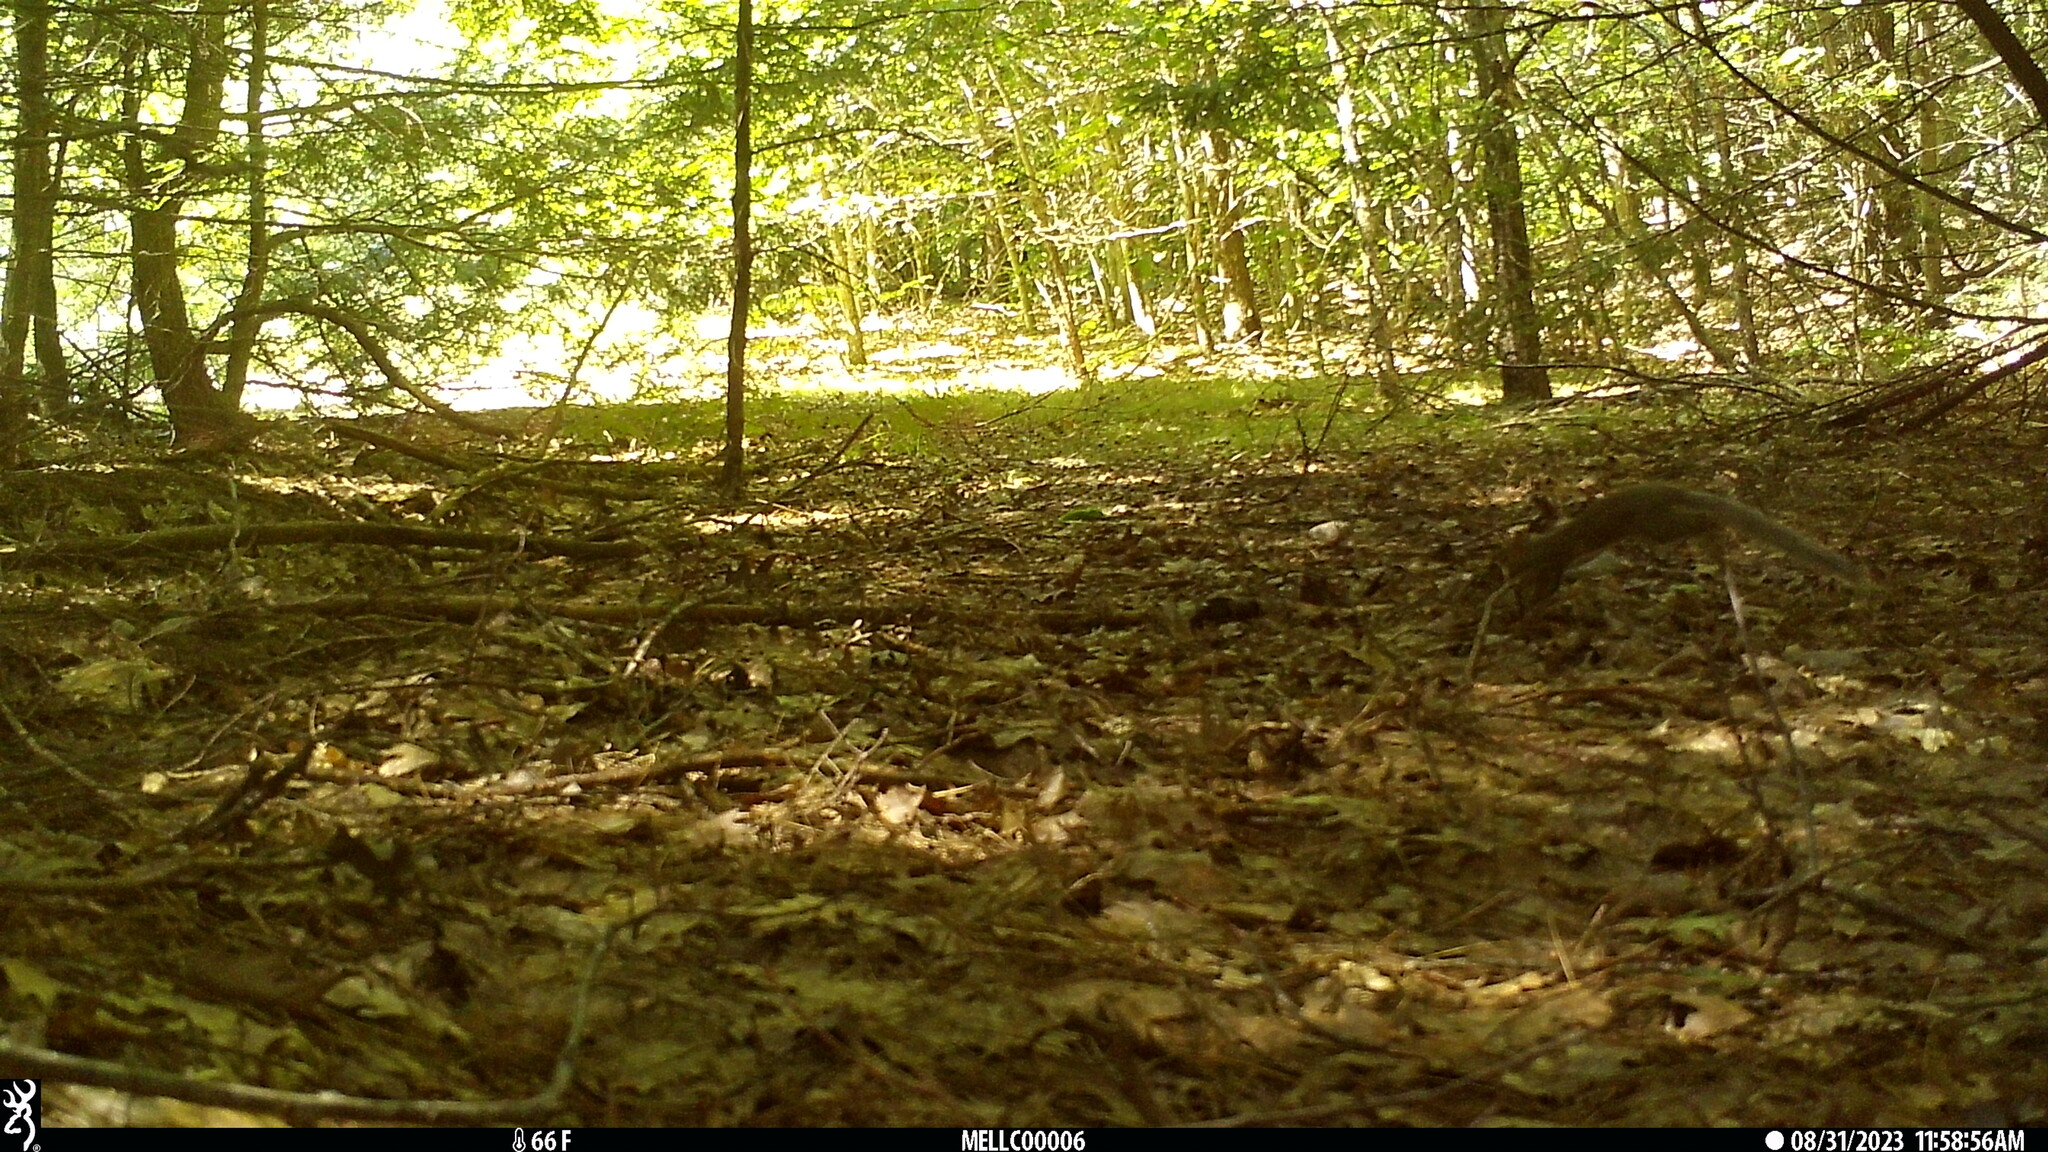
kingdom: Animalia
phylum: Chordata
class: Mammalia
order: Rodentia
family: Sciuridae
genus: Sciurus
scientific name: Sciurus carolinensis
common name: Eastern gray squirrel
